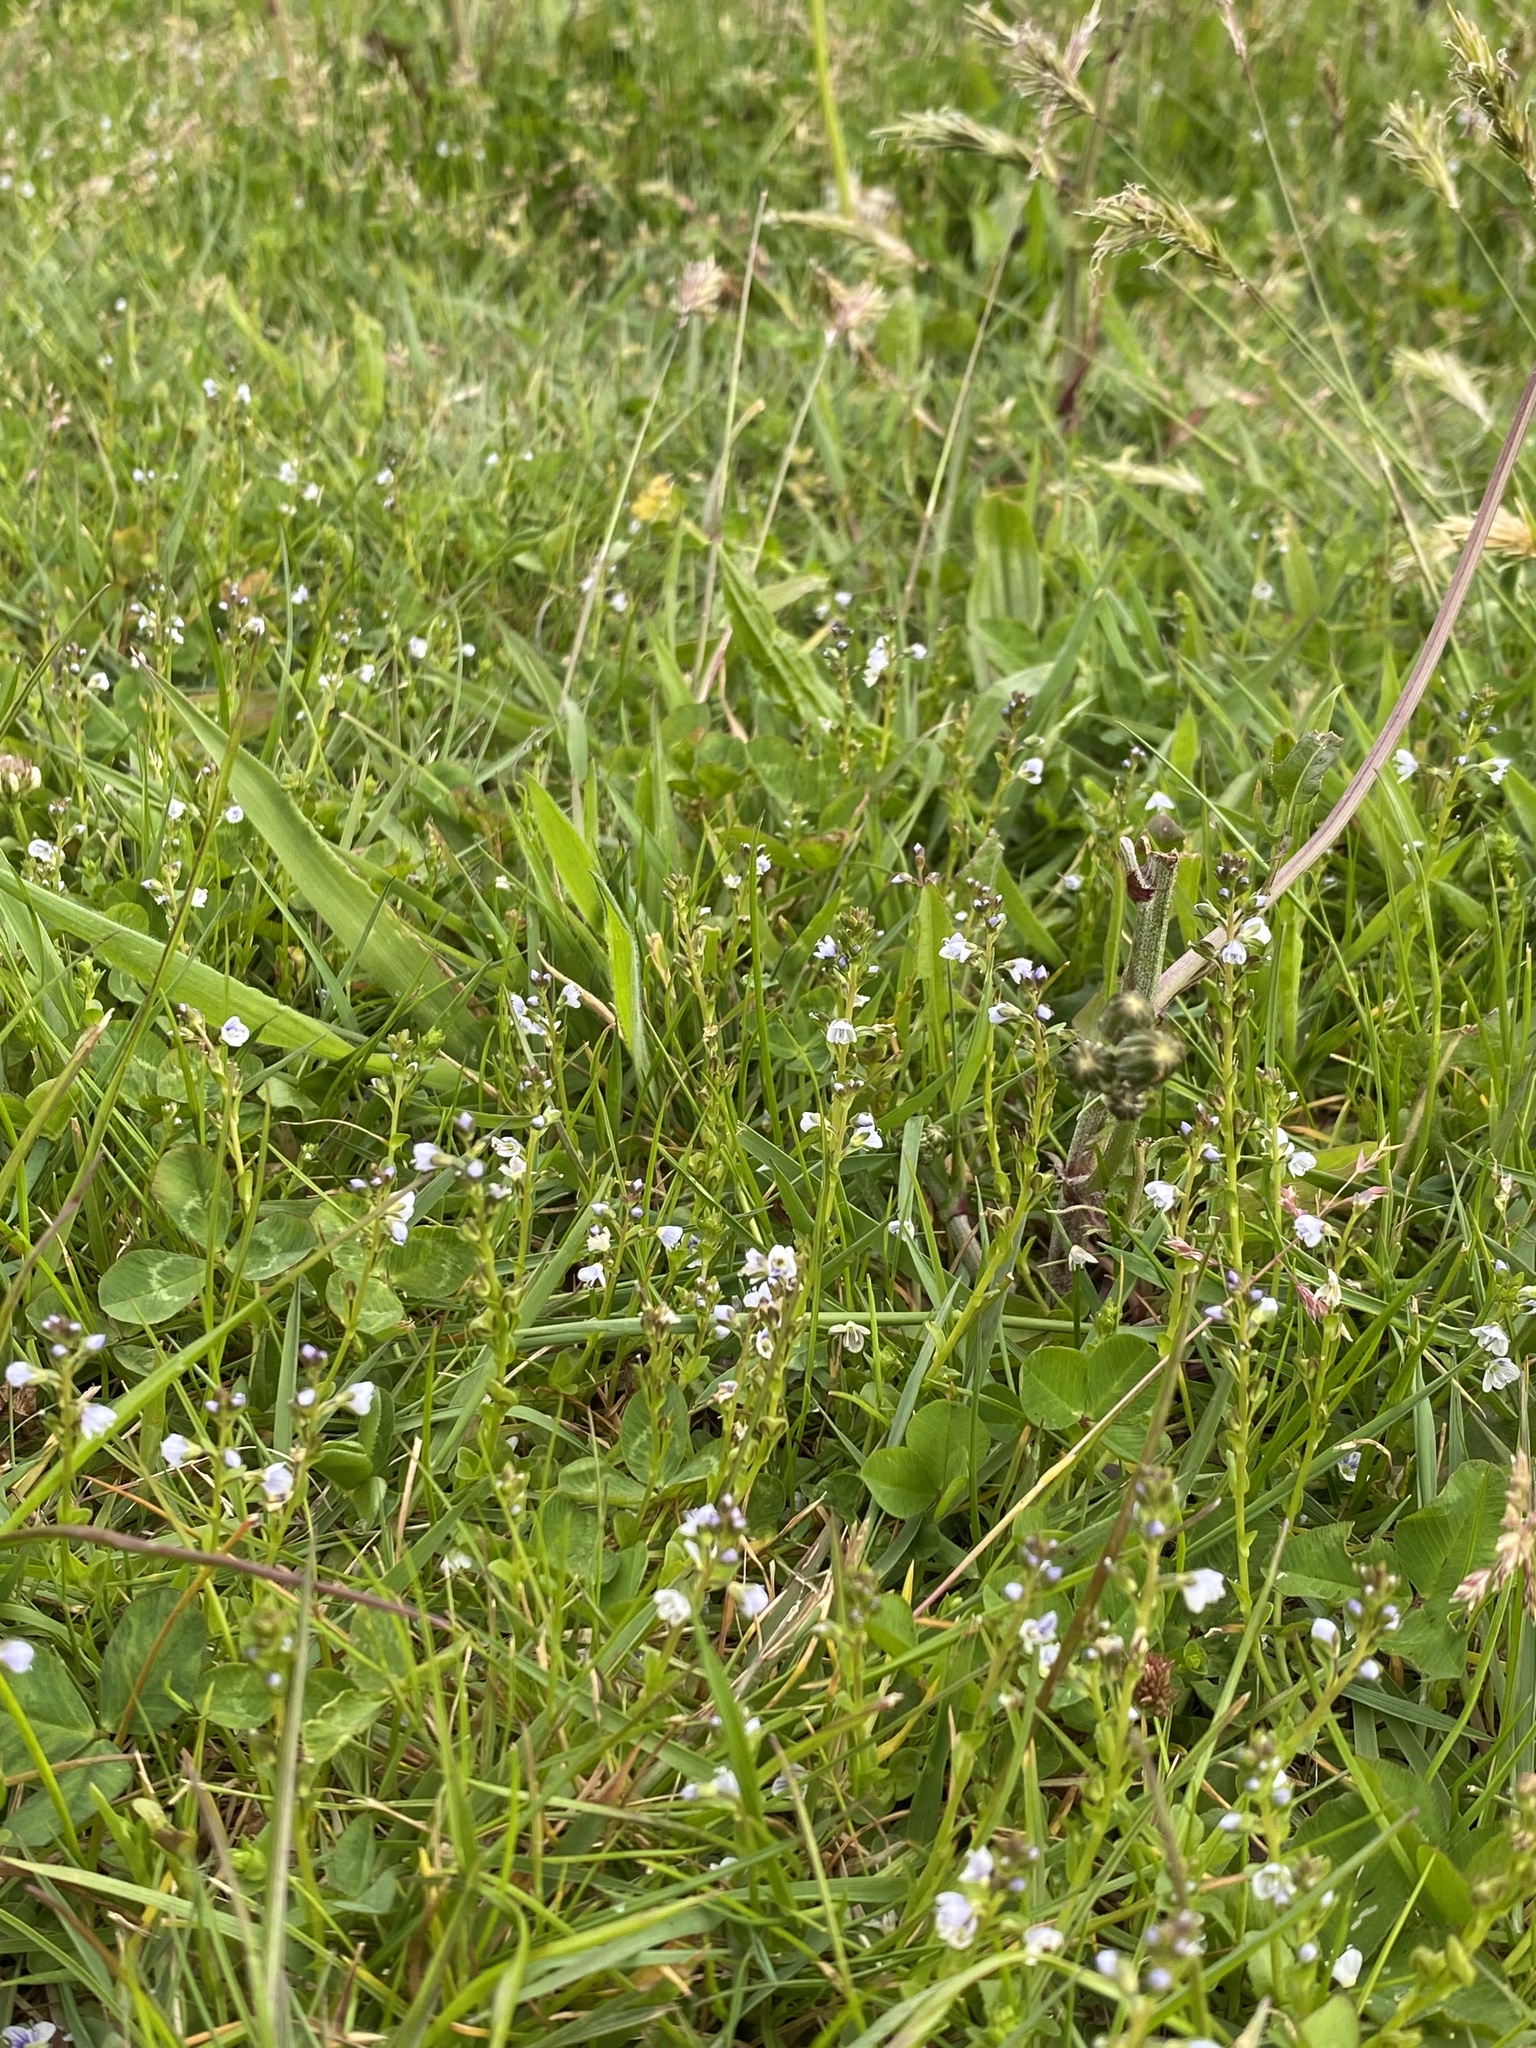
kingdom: Plantae
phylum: Tracheophyta
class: Magnoliopsida
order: Lamiales
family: Plantaginaceae
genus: Veronica
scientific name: Veronica serpyllifolia
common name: Thyme-leaved speedwell
